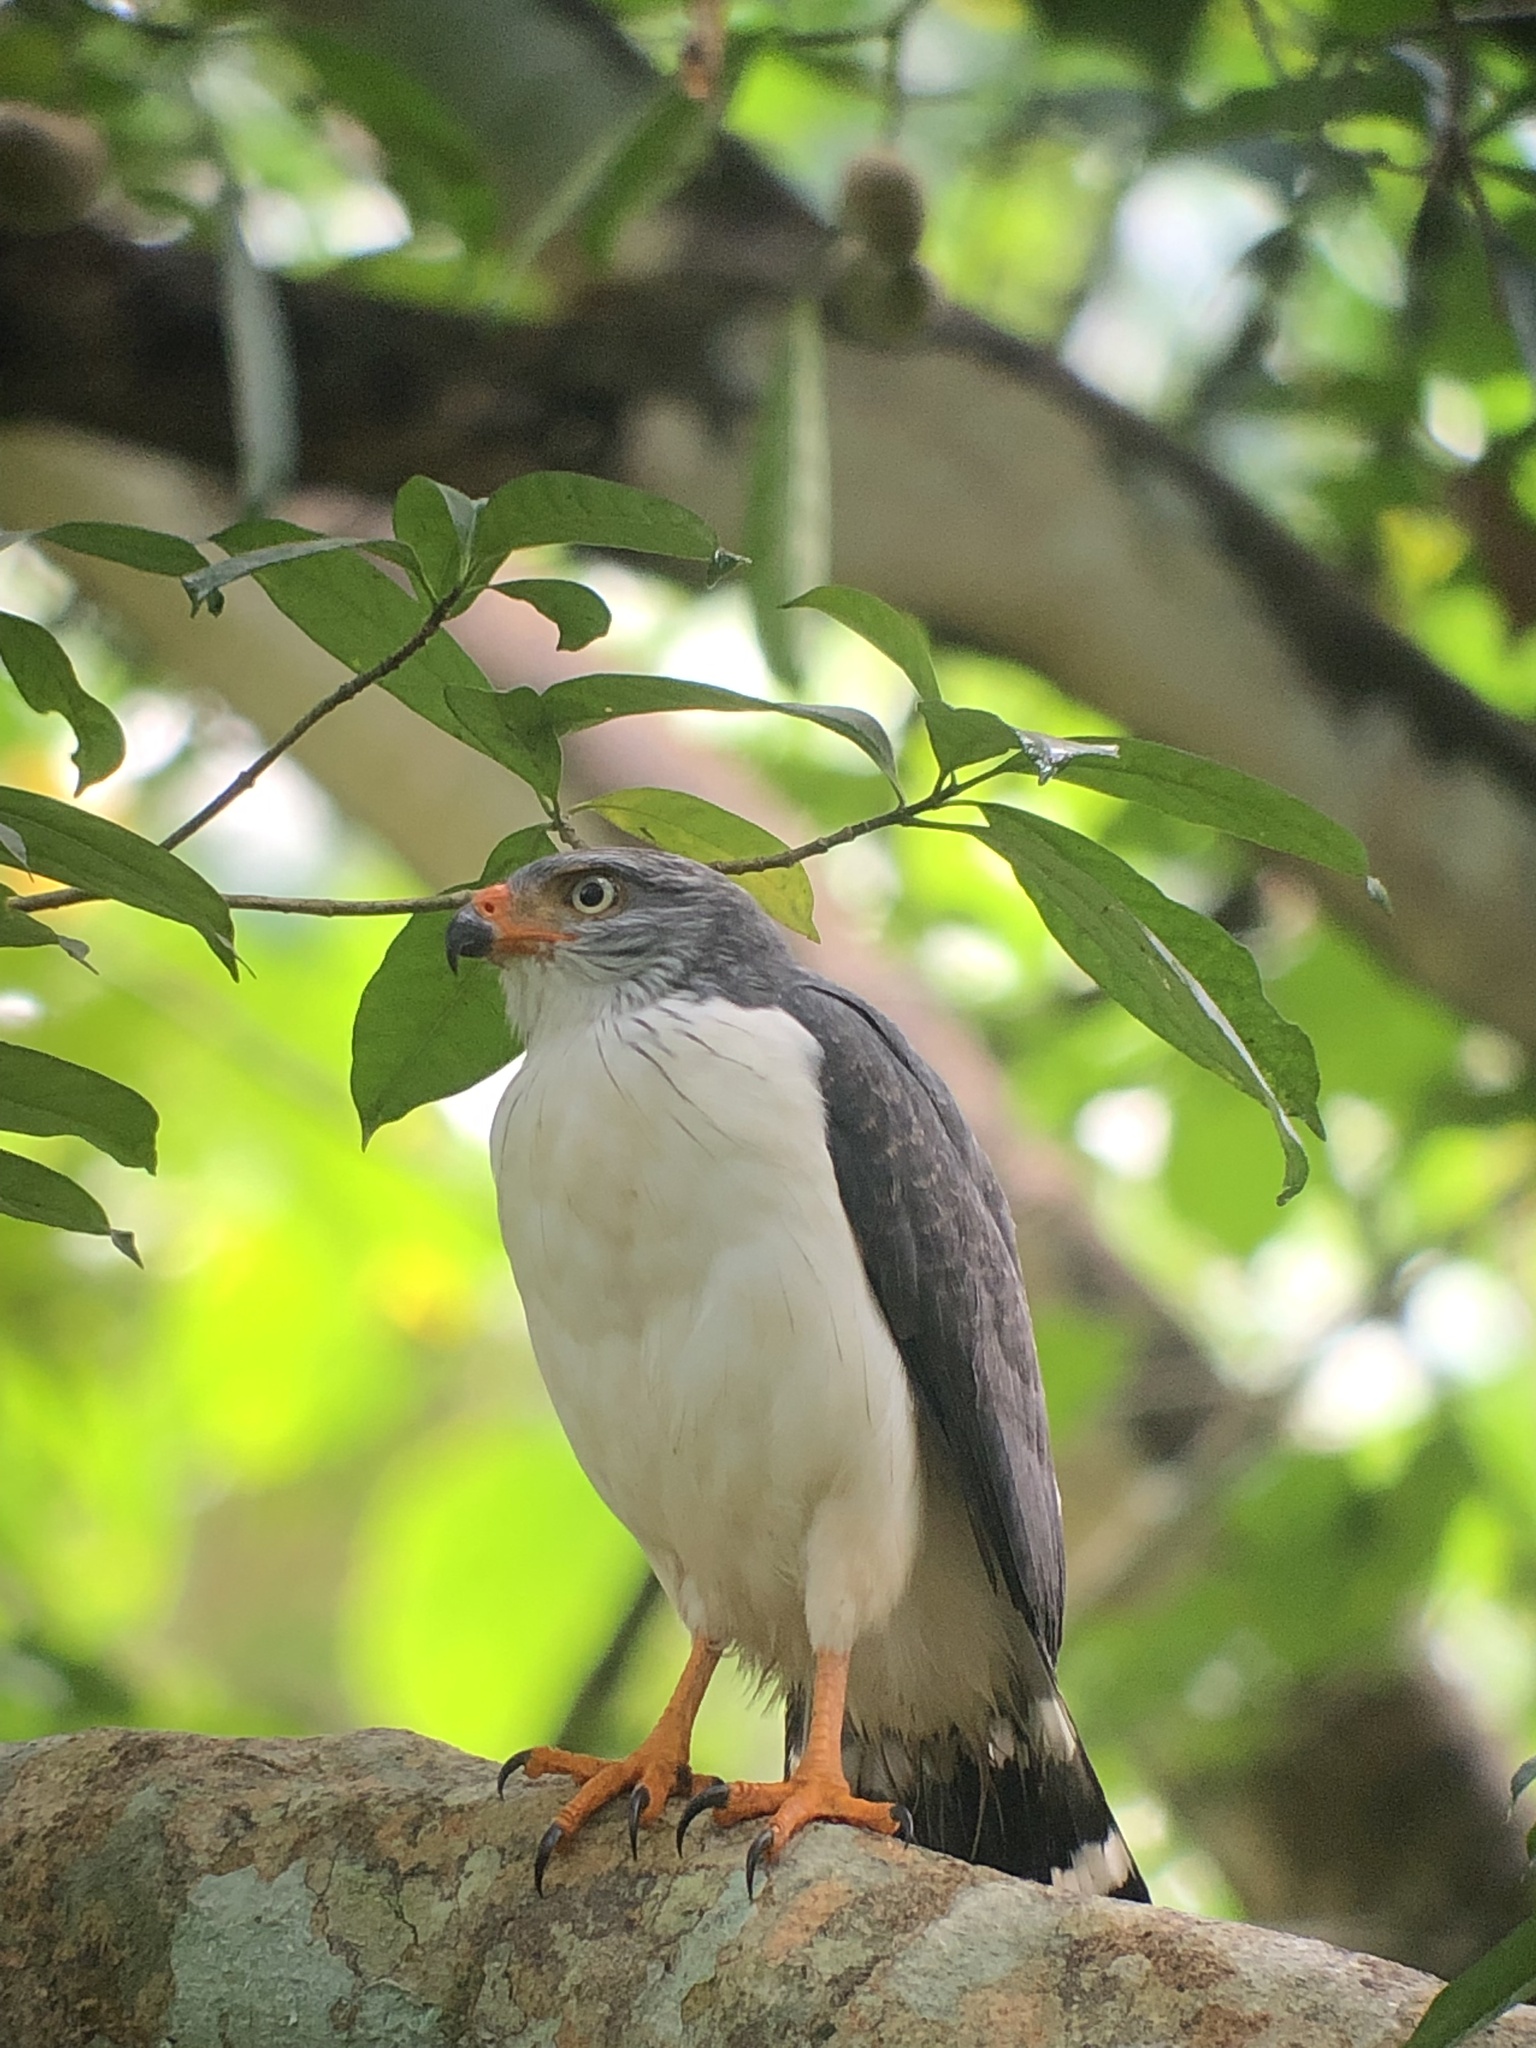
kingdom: Animalia
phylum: Chordata
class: Aves
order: Accipitriformes
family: Accipitridae
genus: Leucopternis
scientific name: Leucopternis semiplumbeus
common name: Semiplumbeous hawk
